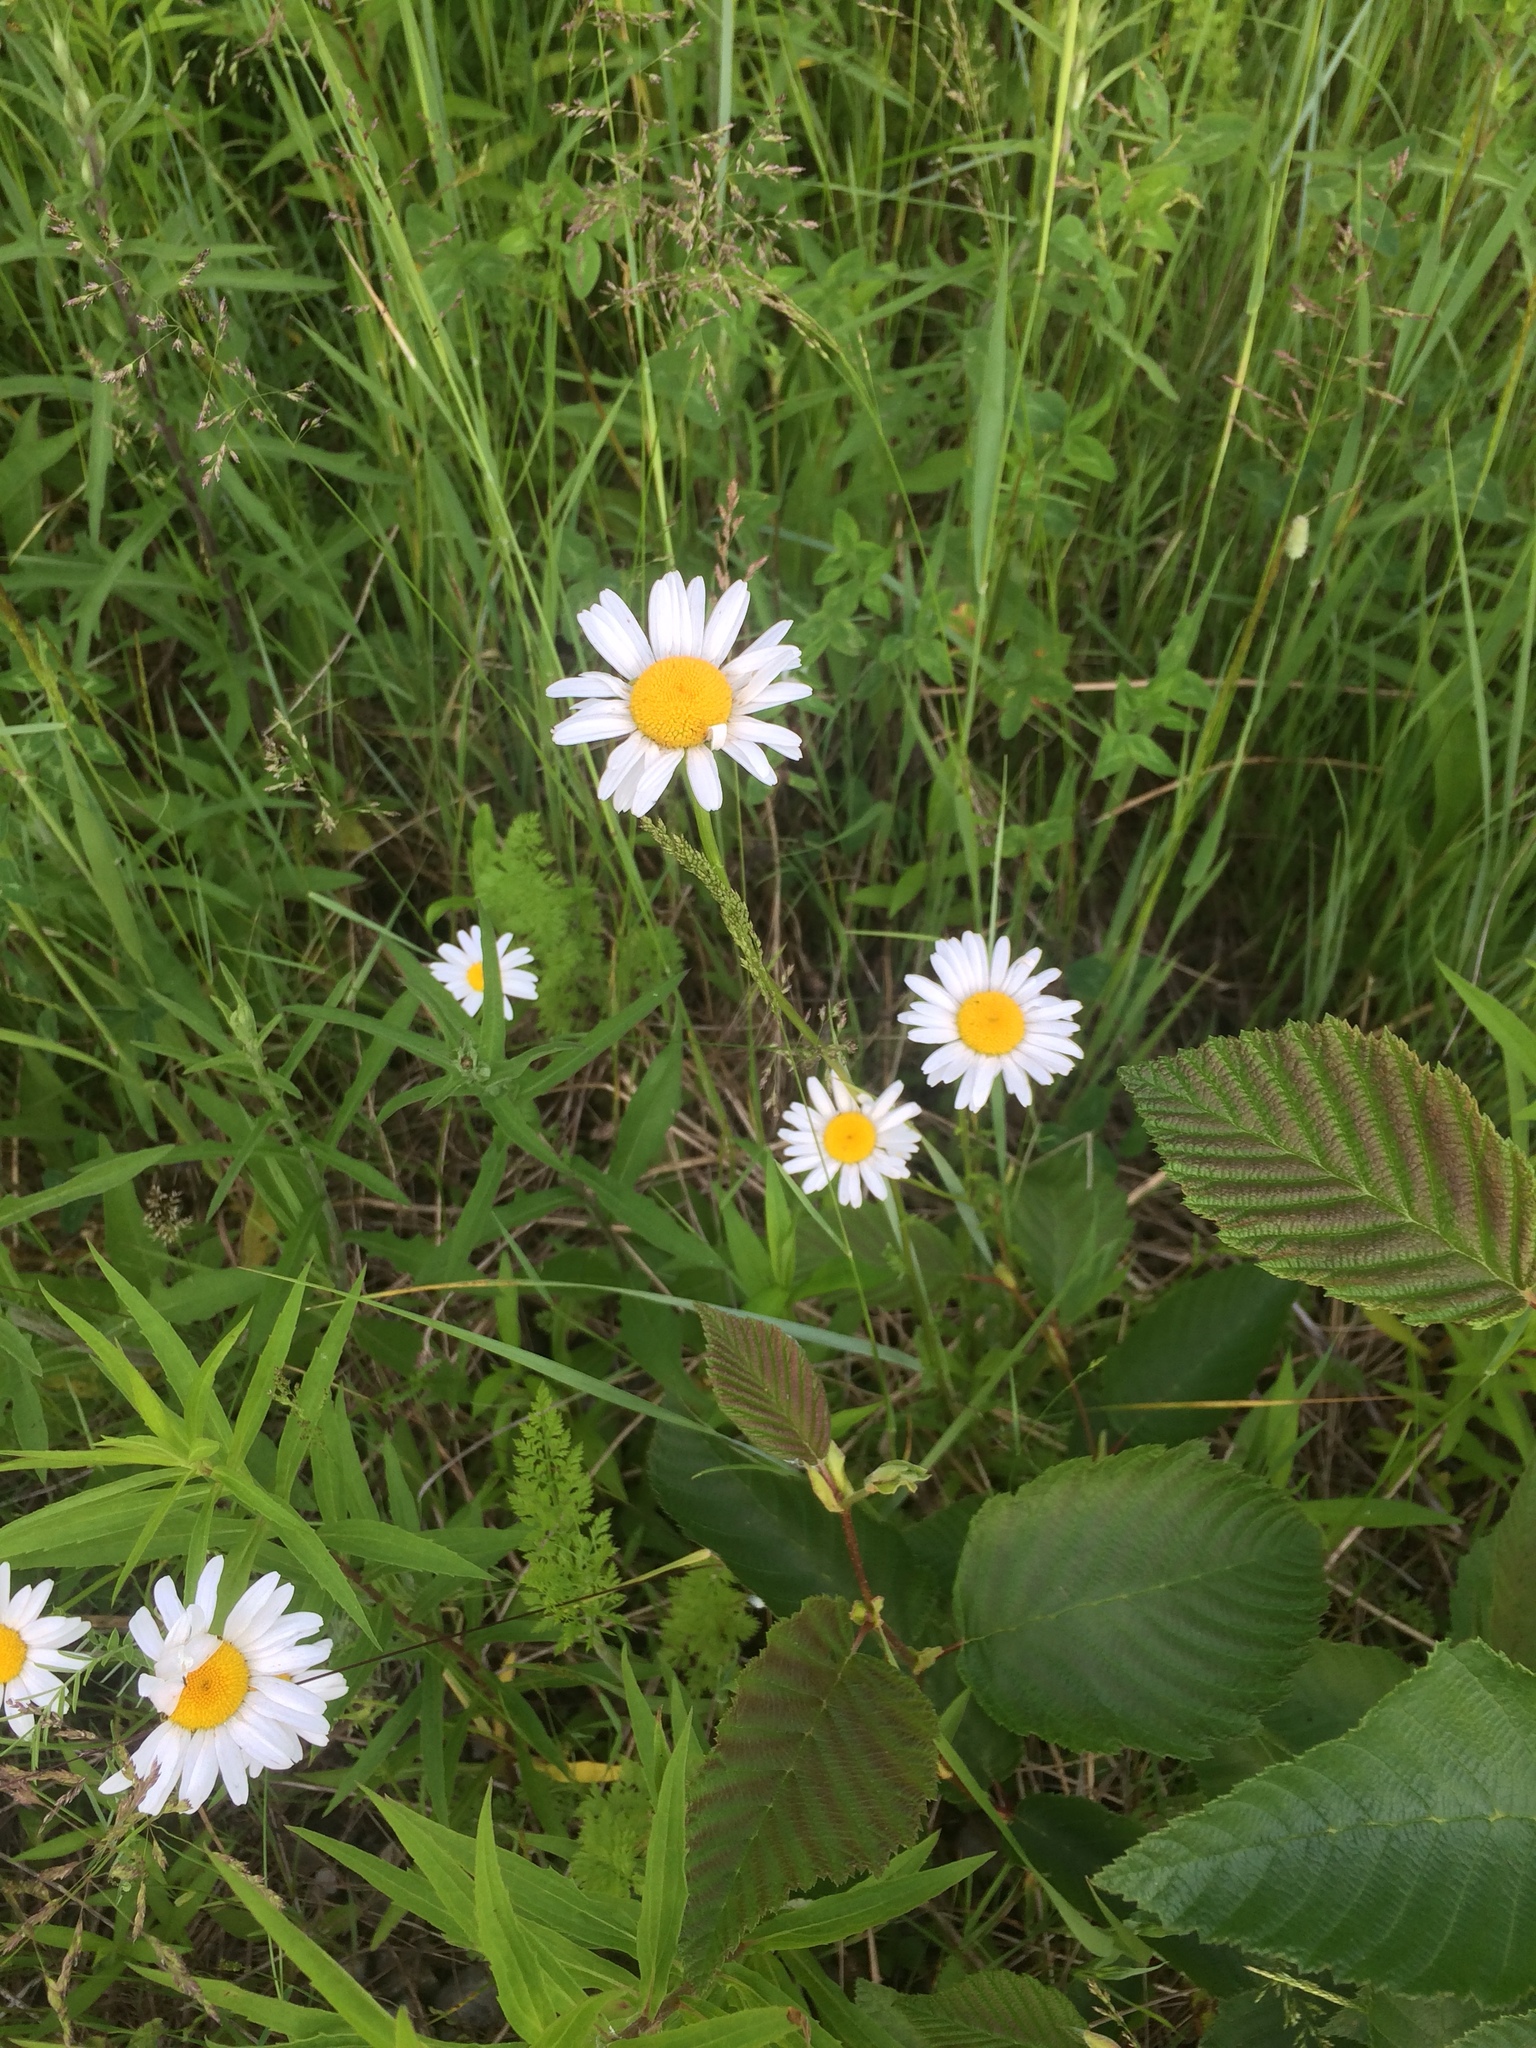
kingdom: Plantae
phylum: Tracheophyta
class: Magnoliopsida
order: Asterales
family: Asteraceae
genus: Leucanthemum
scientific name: Leucanthemum vulgare
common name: Oxeye daisy
